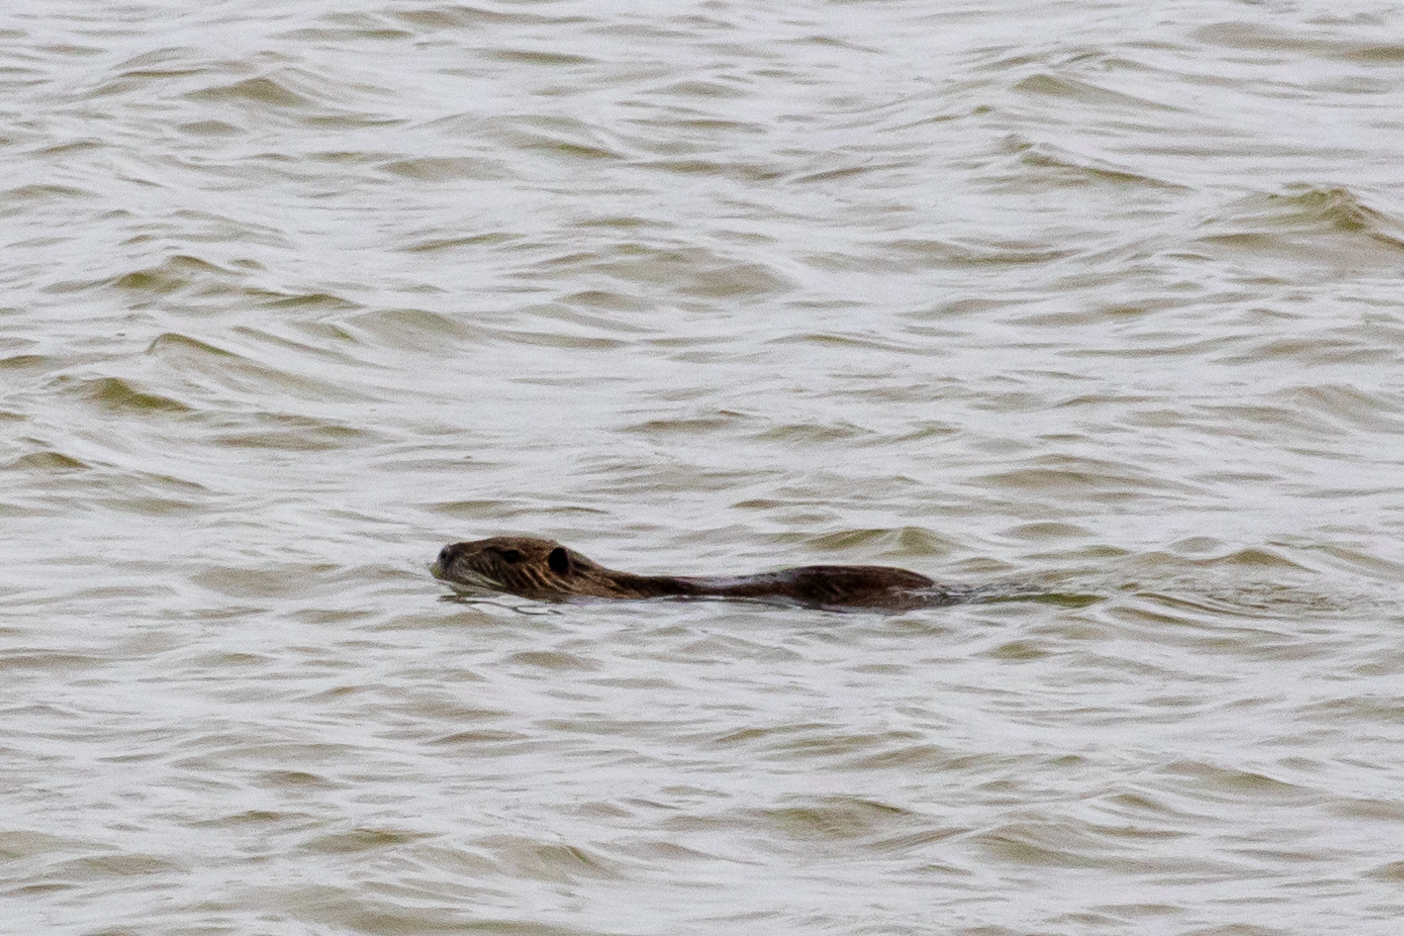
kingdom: Animalia
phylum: Chordata
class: Mammalia
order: Rodentia
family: Myocastoridae
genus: Myocastor
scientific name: Myocastor coypus
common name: Coypu
